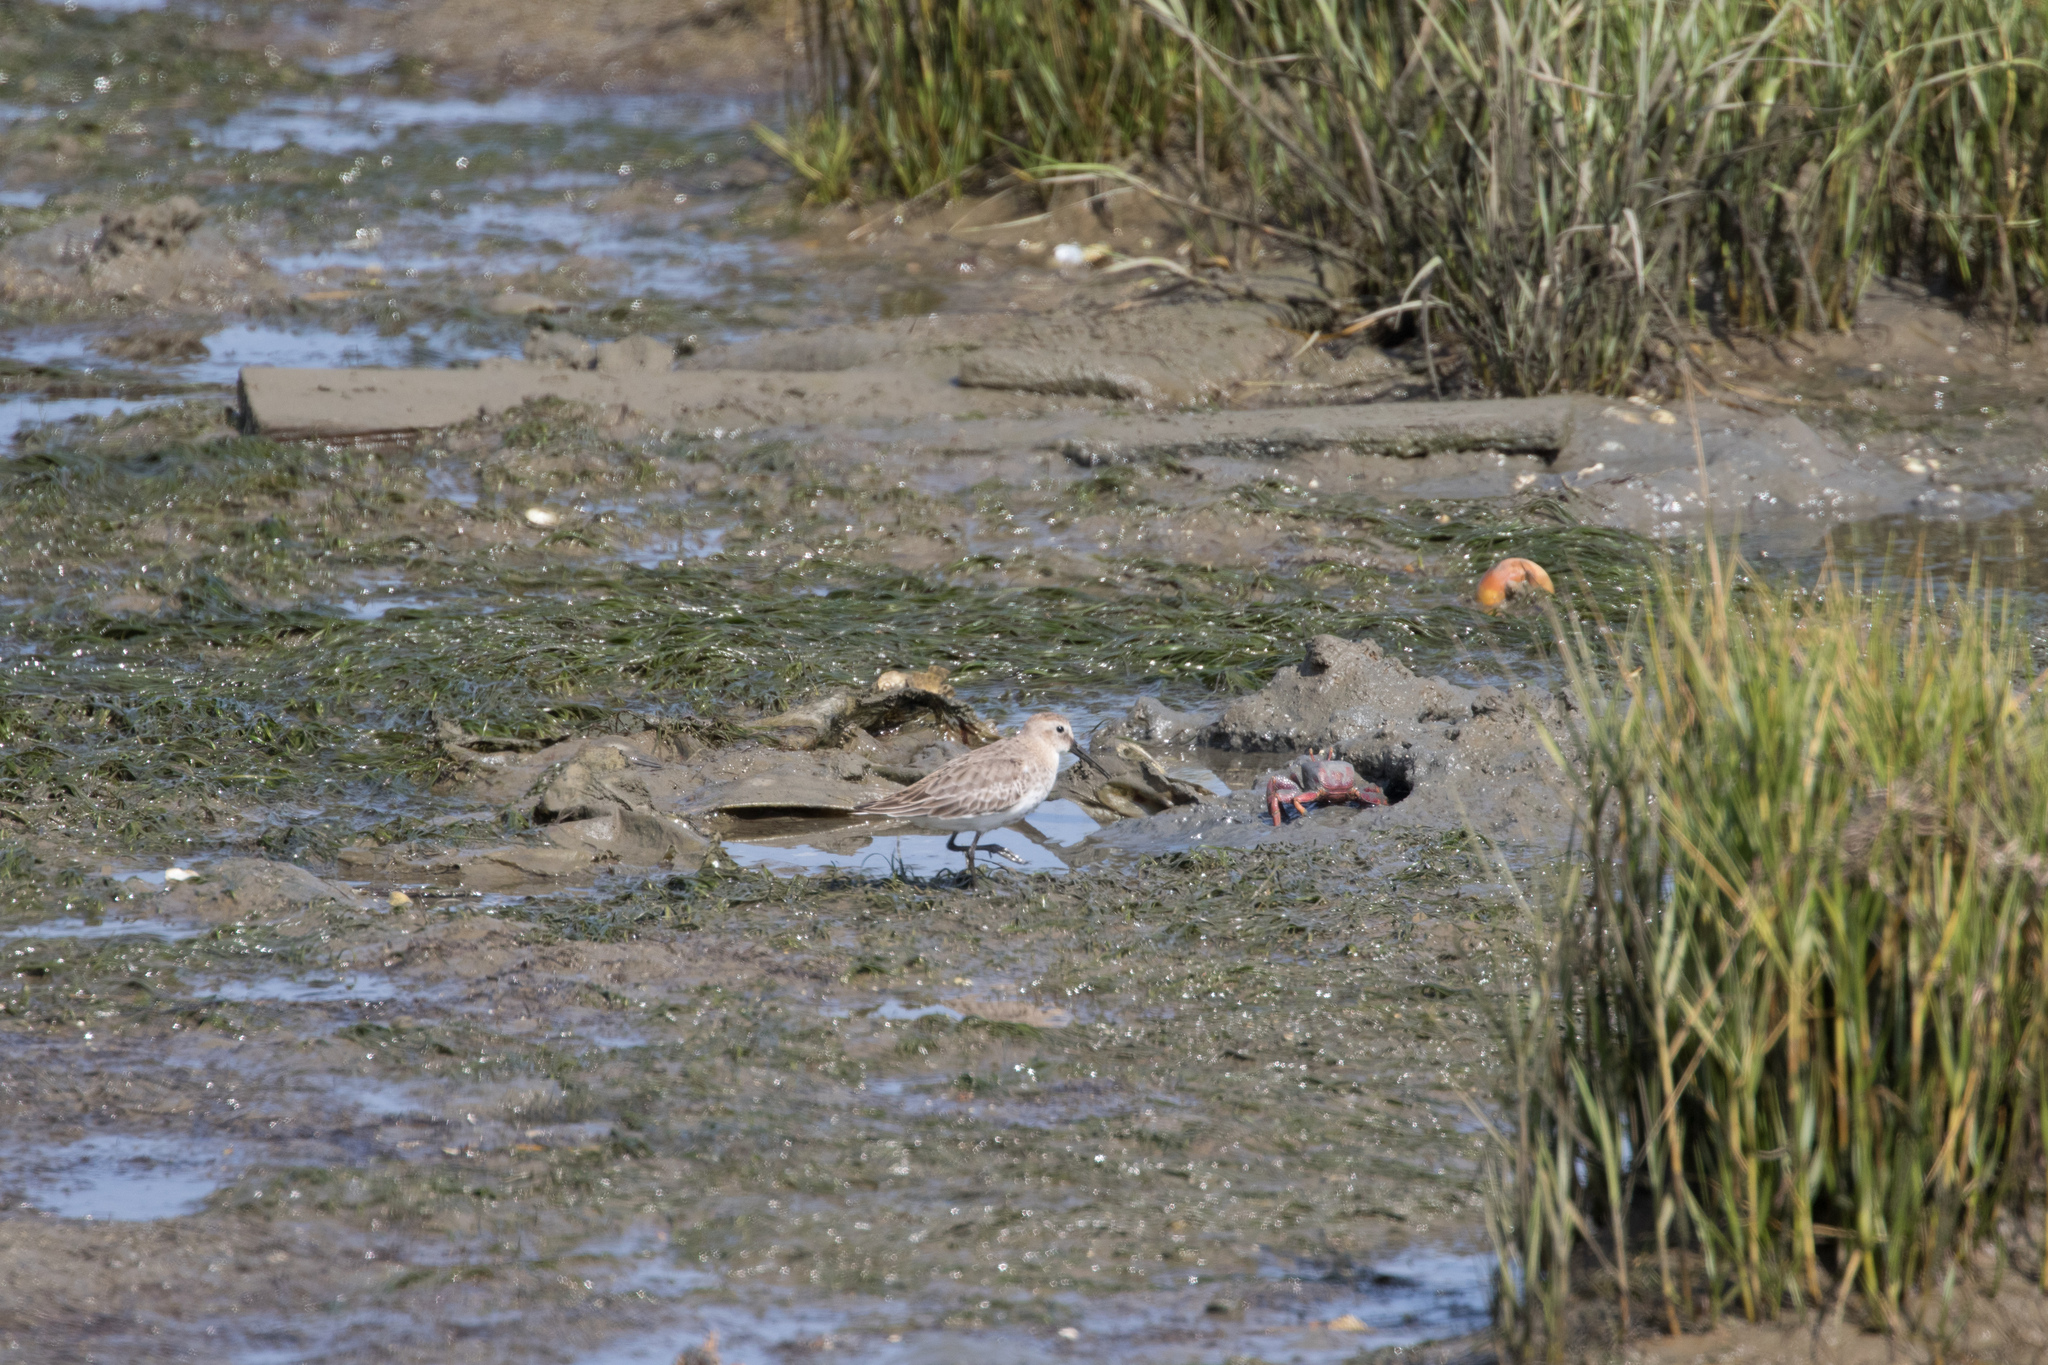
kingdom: Animalia
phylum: Chordata
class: Aves
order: Charadriiformes
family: Scolopacidae
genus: Calidris
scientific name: Calidris alpina
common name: Dunlin
